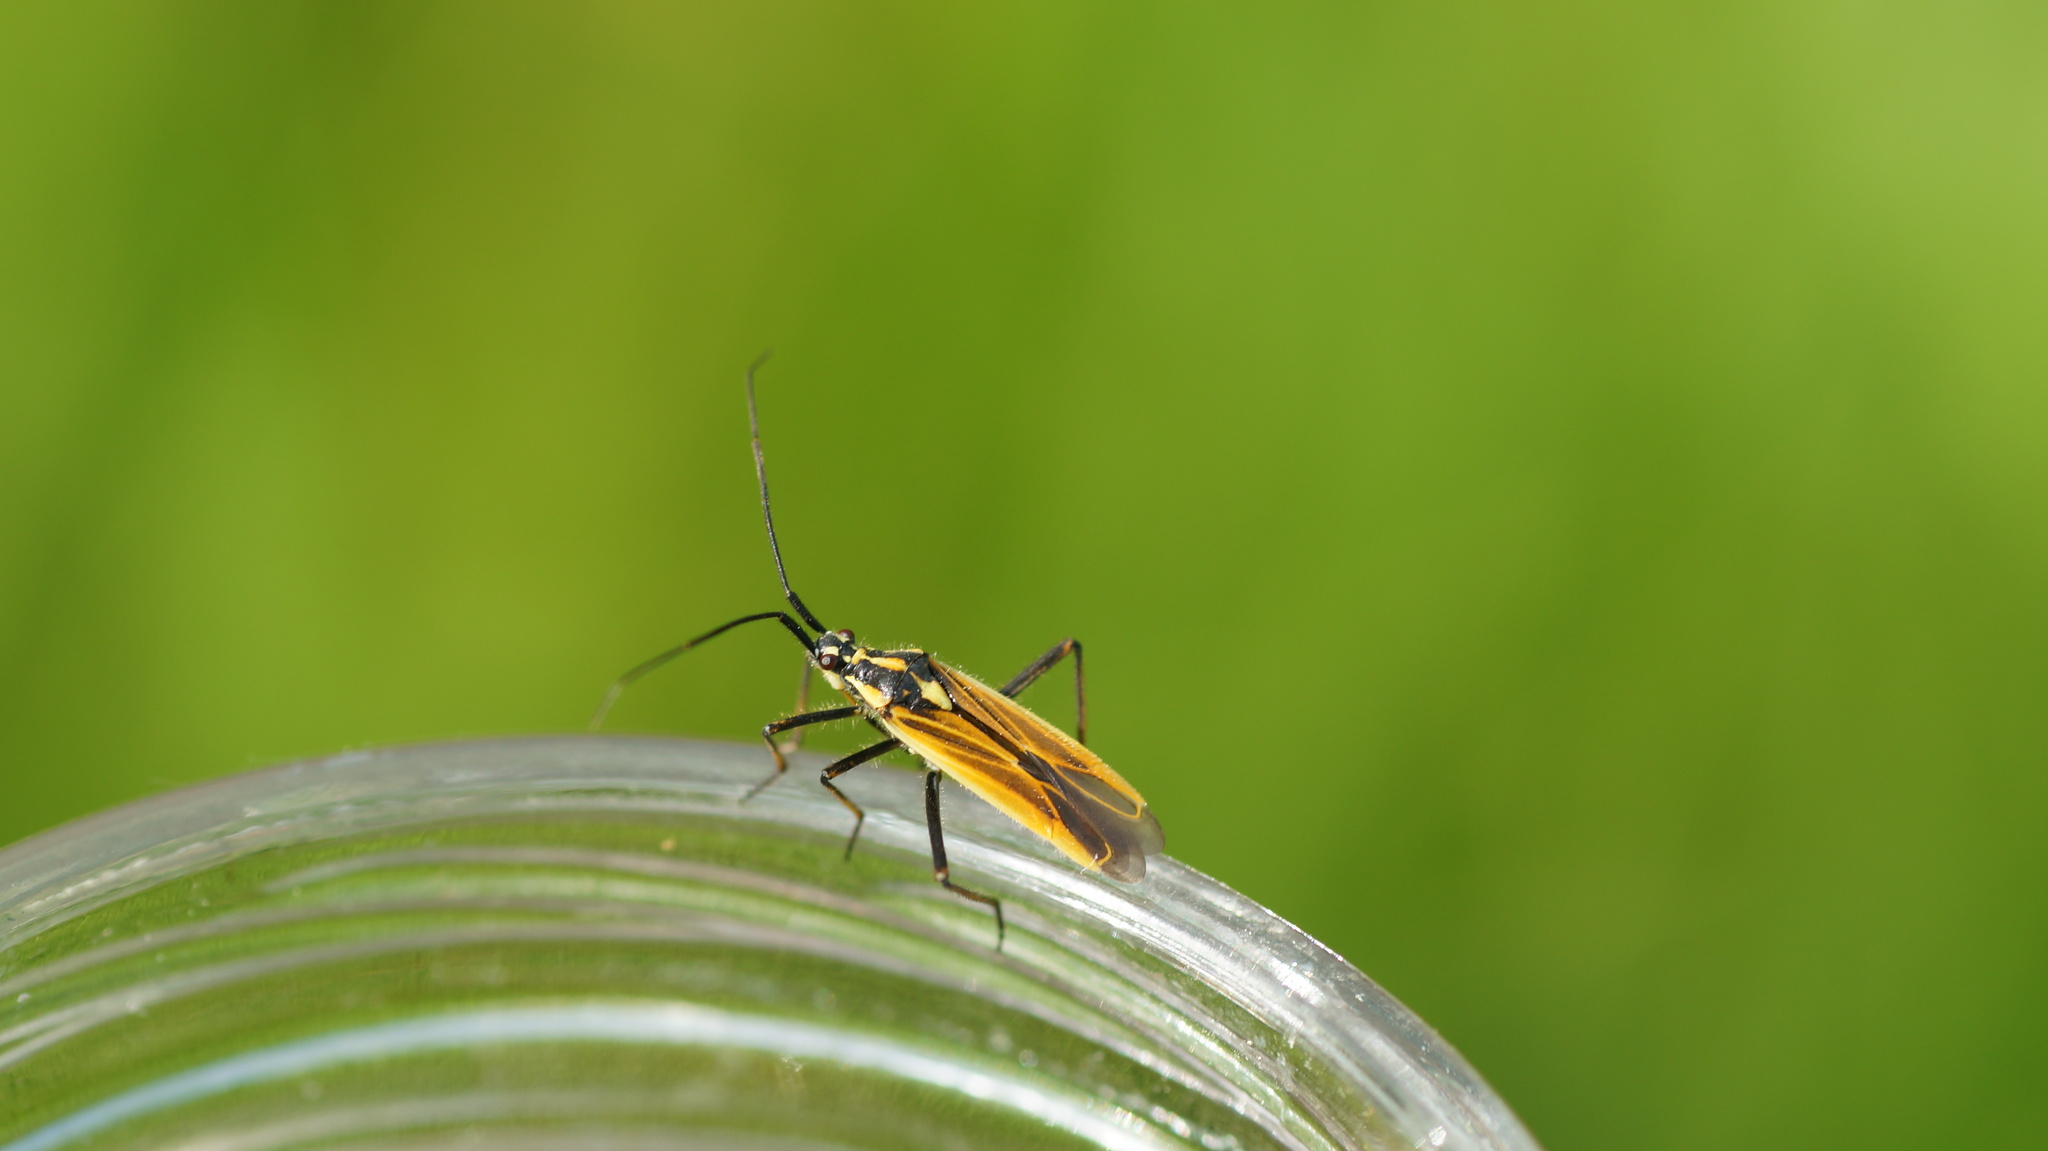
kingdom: Animalia
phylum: Arthropoda
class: Insecta
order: Hemiptera
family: Miridae
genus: Leptopterna
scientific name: Leptopterna dolabrata
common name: Meadow plant bug
